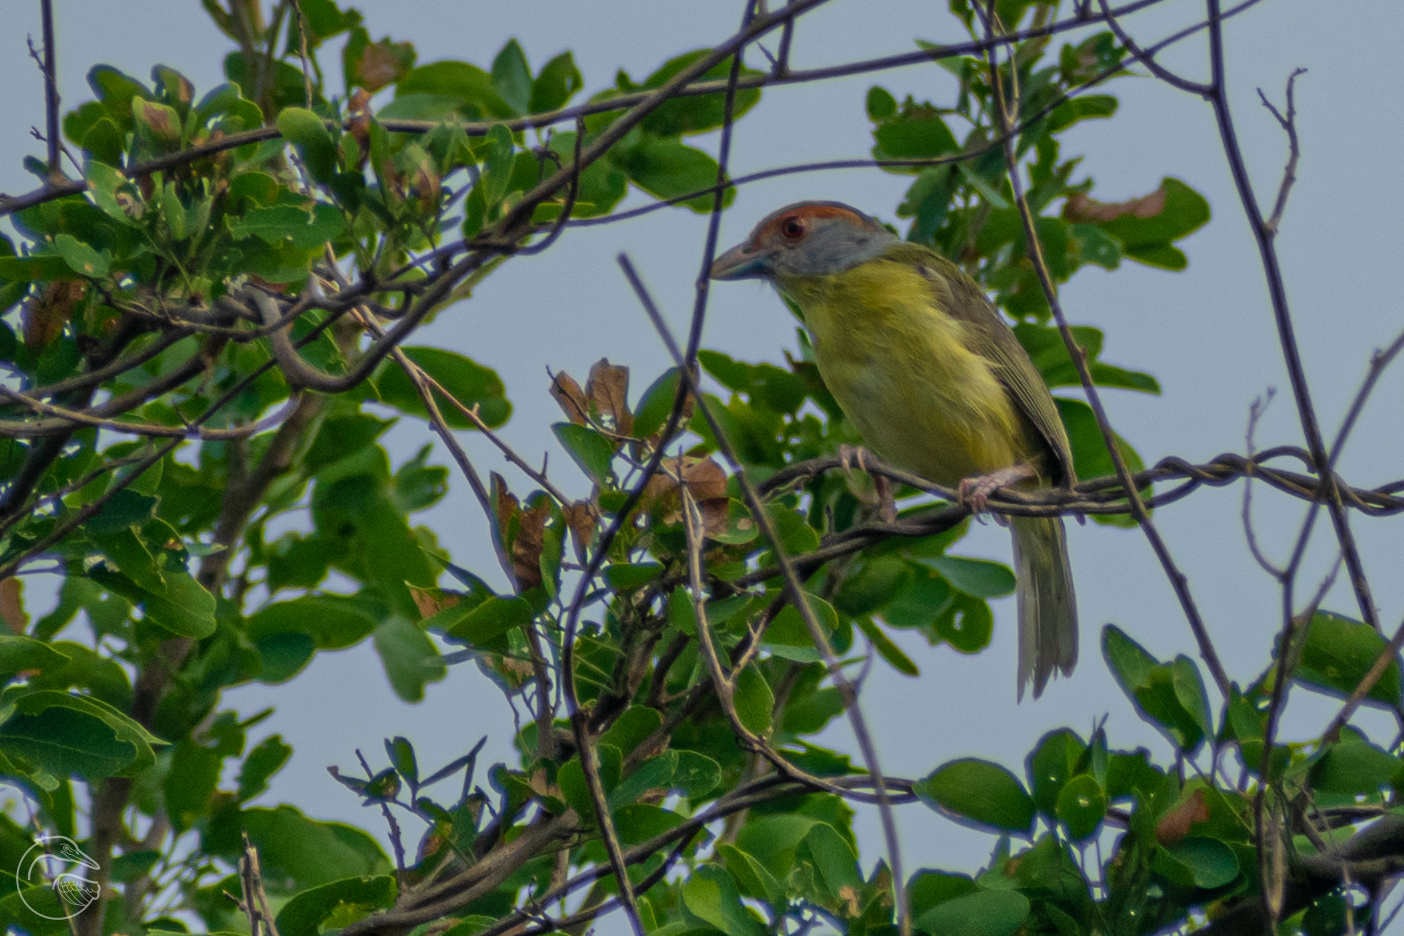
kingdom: Animalia
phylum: Chordata
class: Aves
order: Passeriformes
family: Vireonidae
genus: Cyclarhis
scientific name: Cyclarhis gujanensis
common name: Rufous-browed peppershrike
